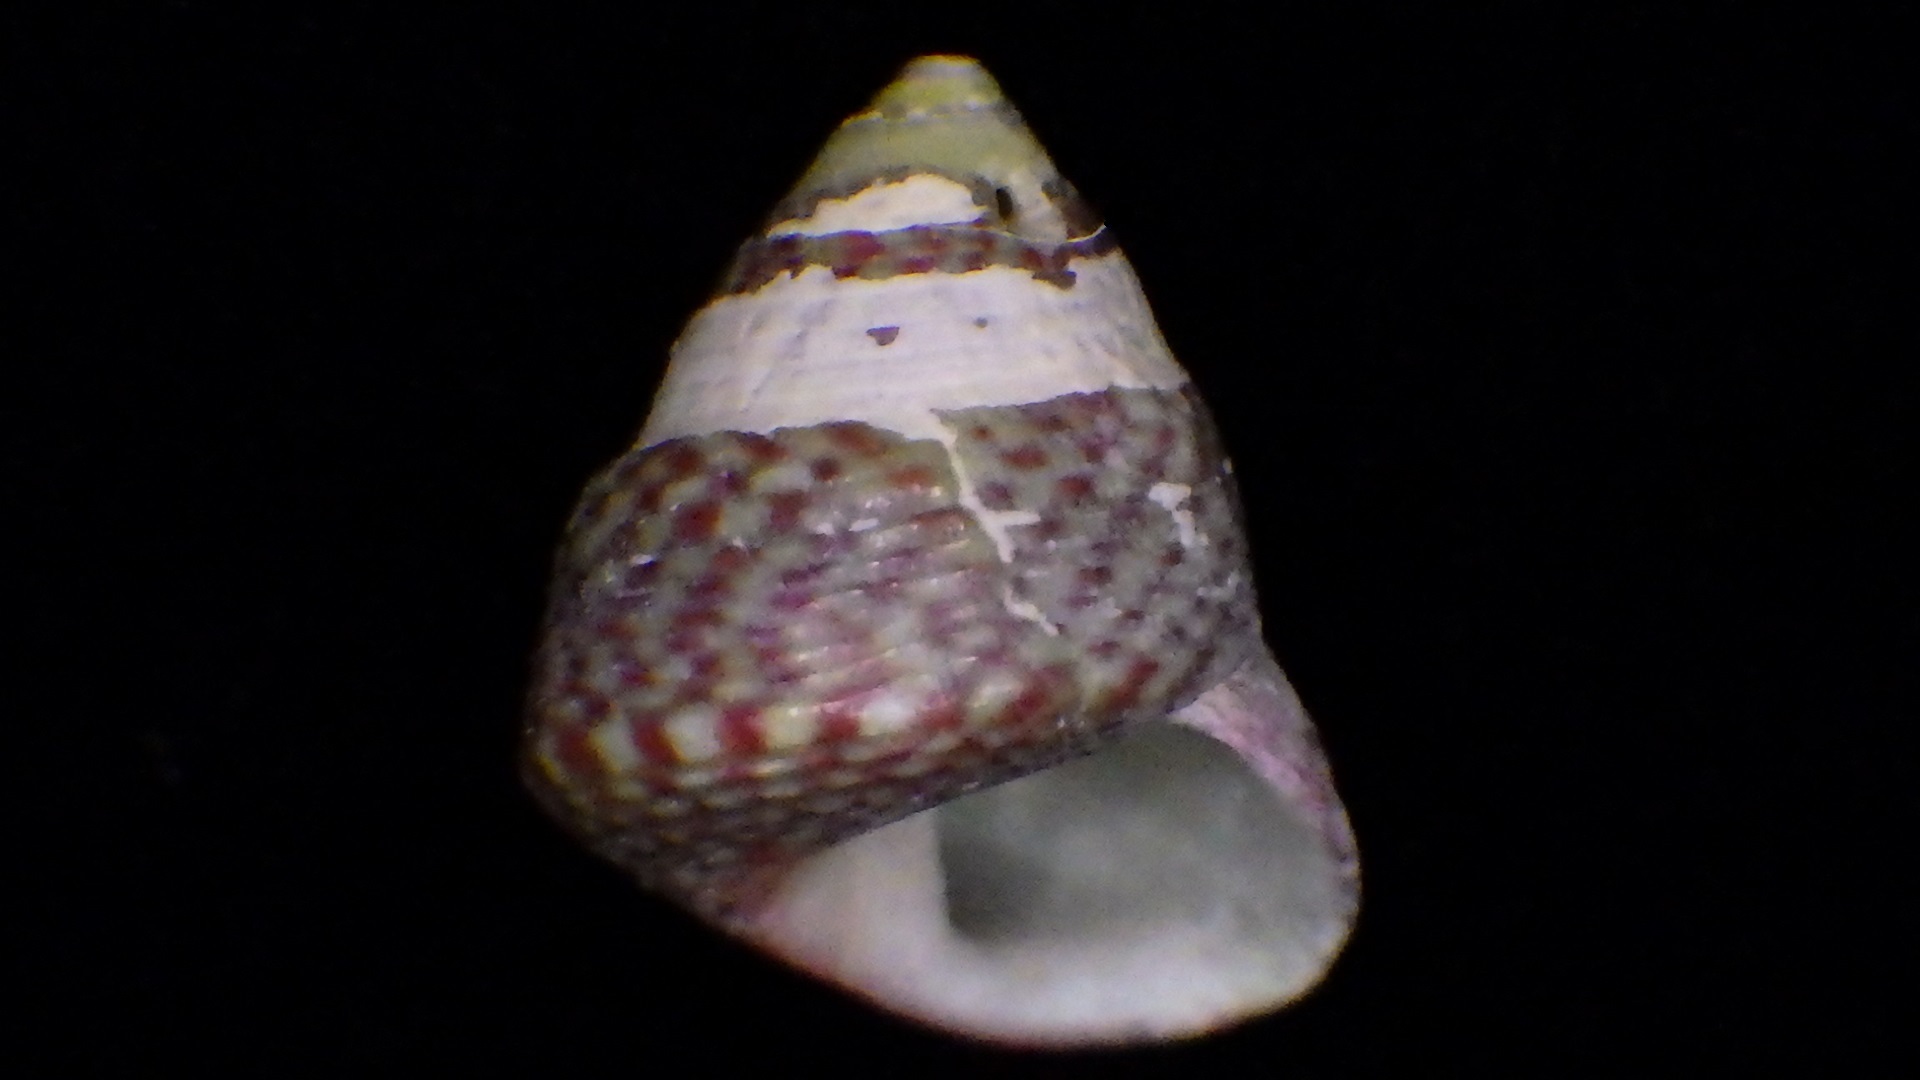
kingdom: Animalia
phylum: Mollusca
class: Gastropoda
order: Trochida
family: Trochidae
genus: Micrelenchus
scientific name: Micrelenchus sanguineus
